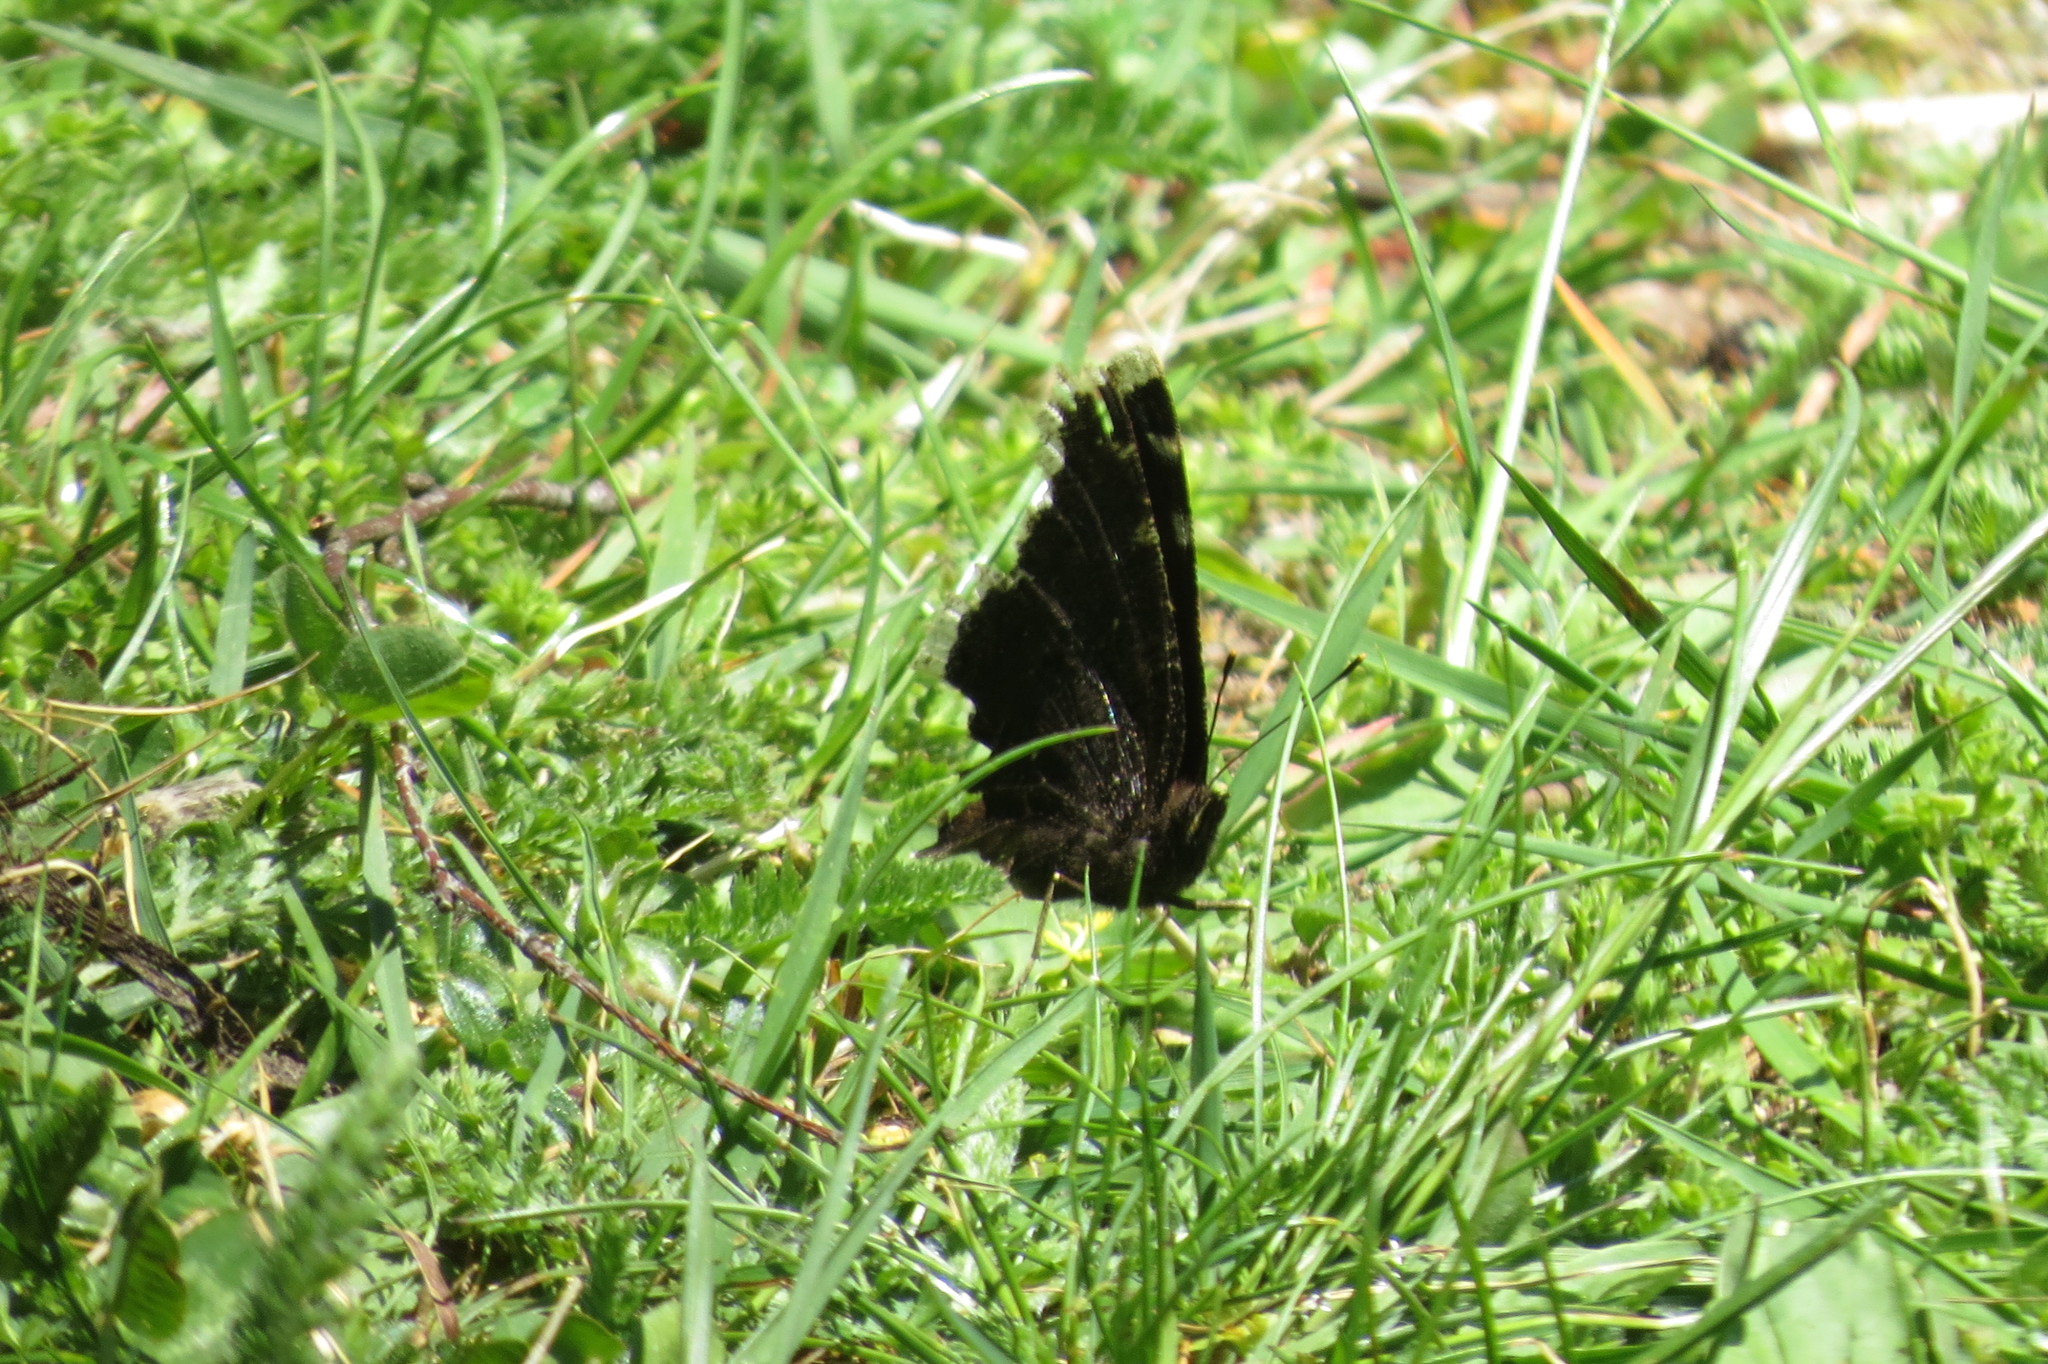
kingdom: Animalia
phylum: Arthropoda
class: Insecta
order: Lepidoptera
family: Nymphalidae
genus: Nymphalis
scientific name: Nymphalis antiopa
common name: Camberwell beauty
